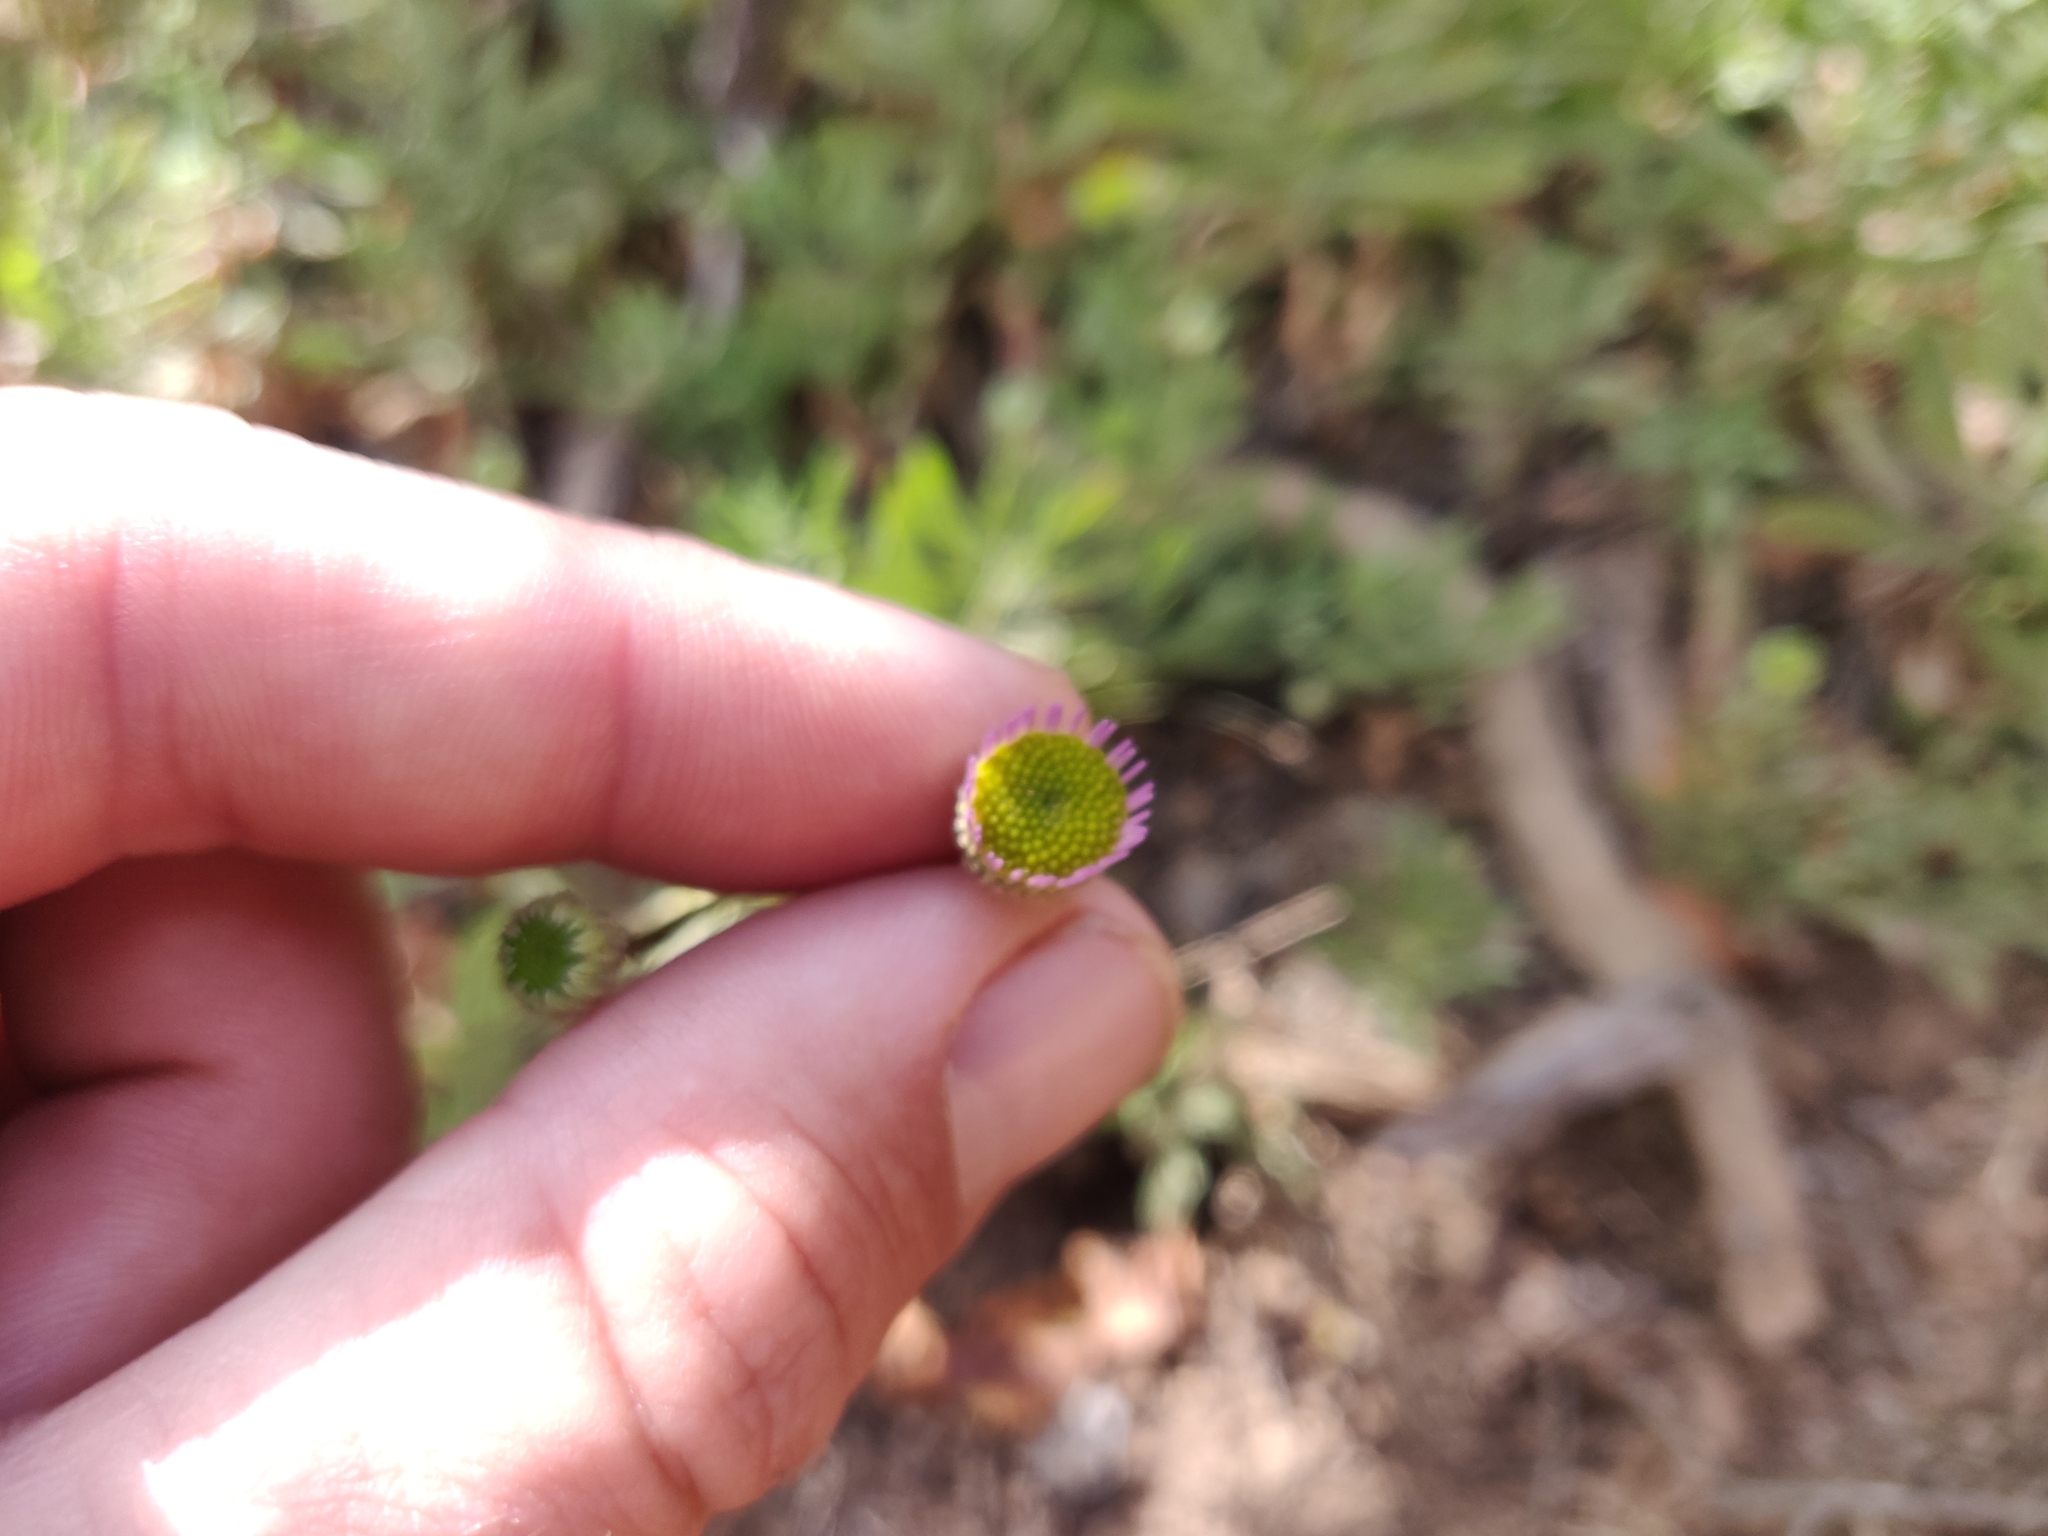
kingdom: Plantae
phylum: Tracheophyta
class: Magnoliopsida
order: Asterales
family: Asteraceae
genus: Erigeron
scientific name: Erigeron foliosus
